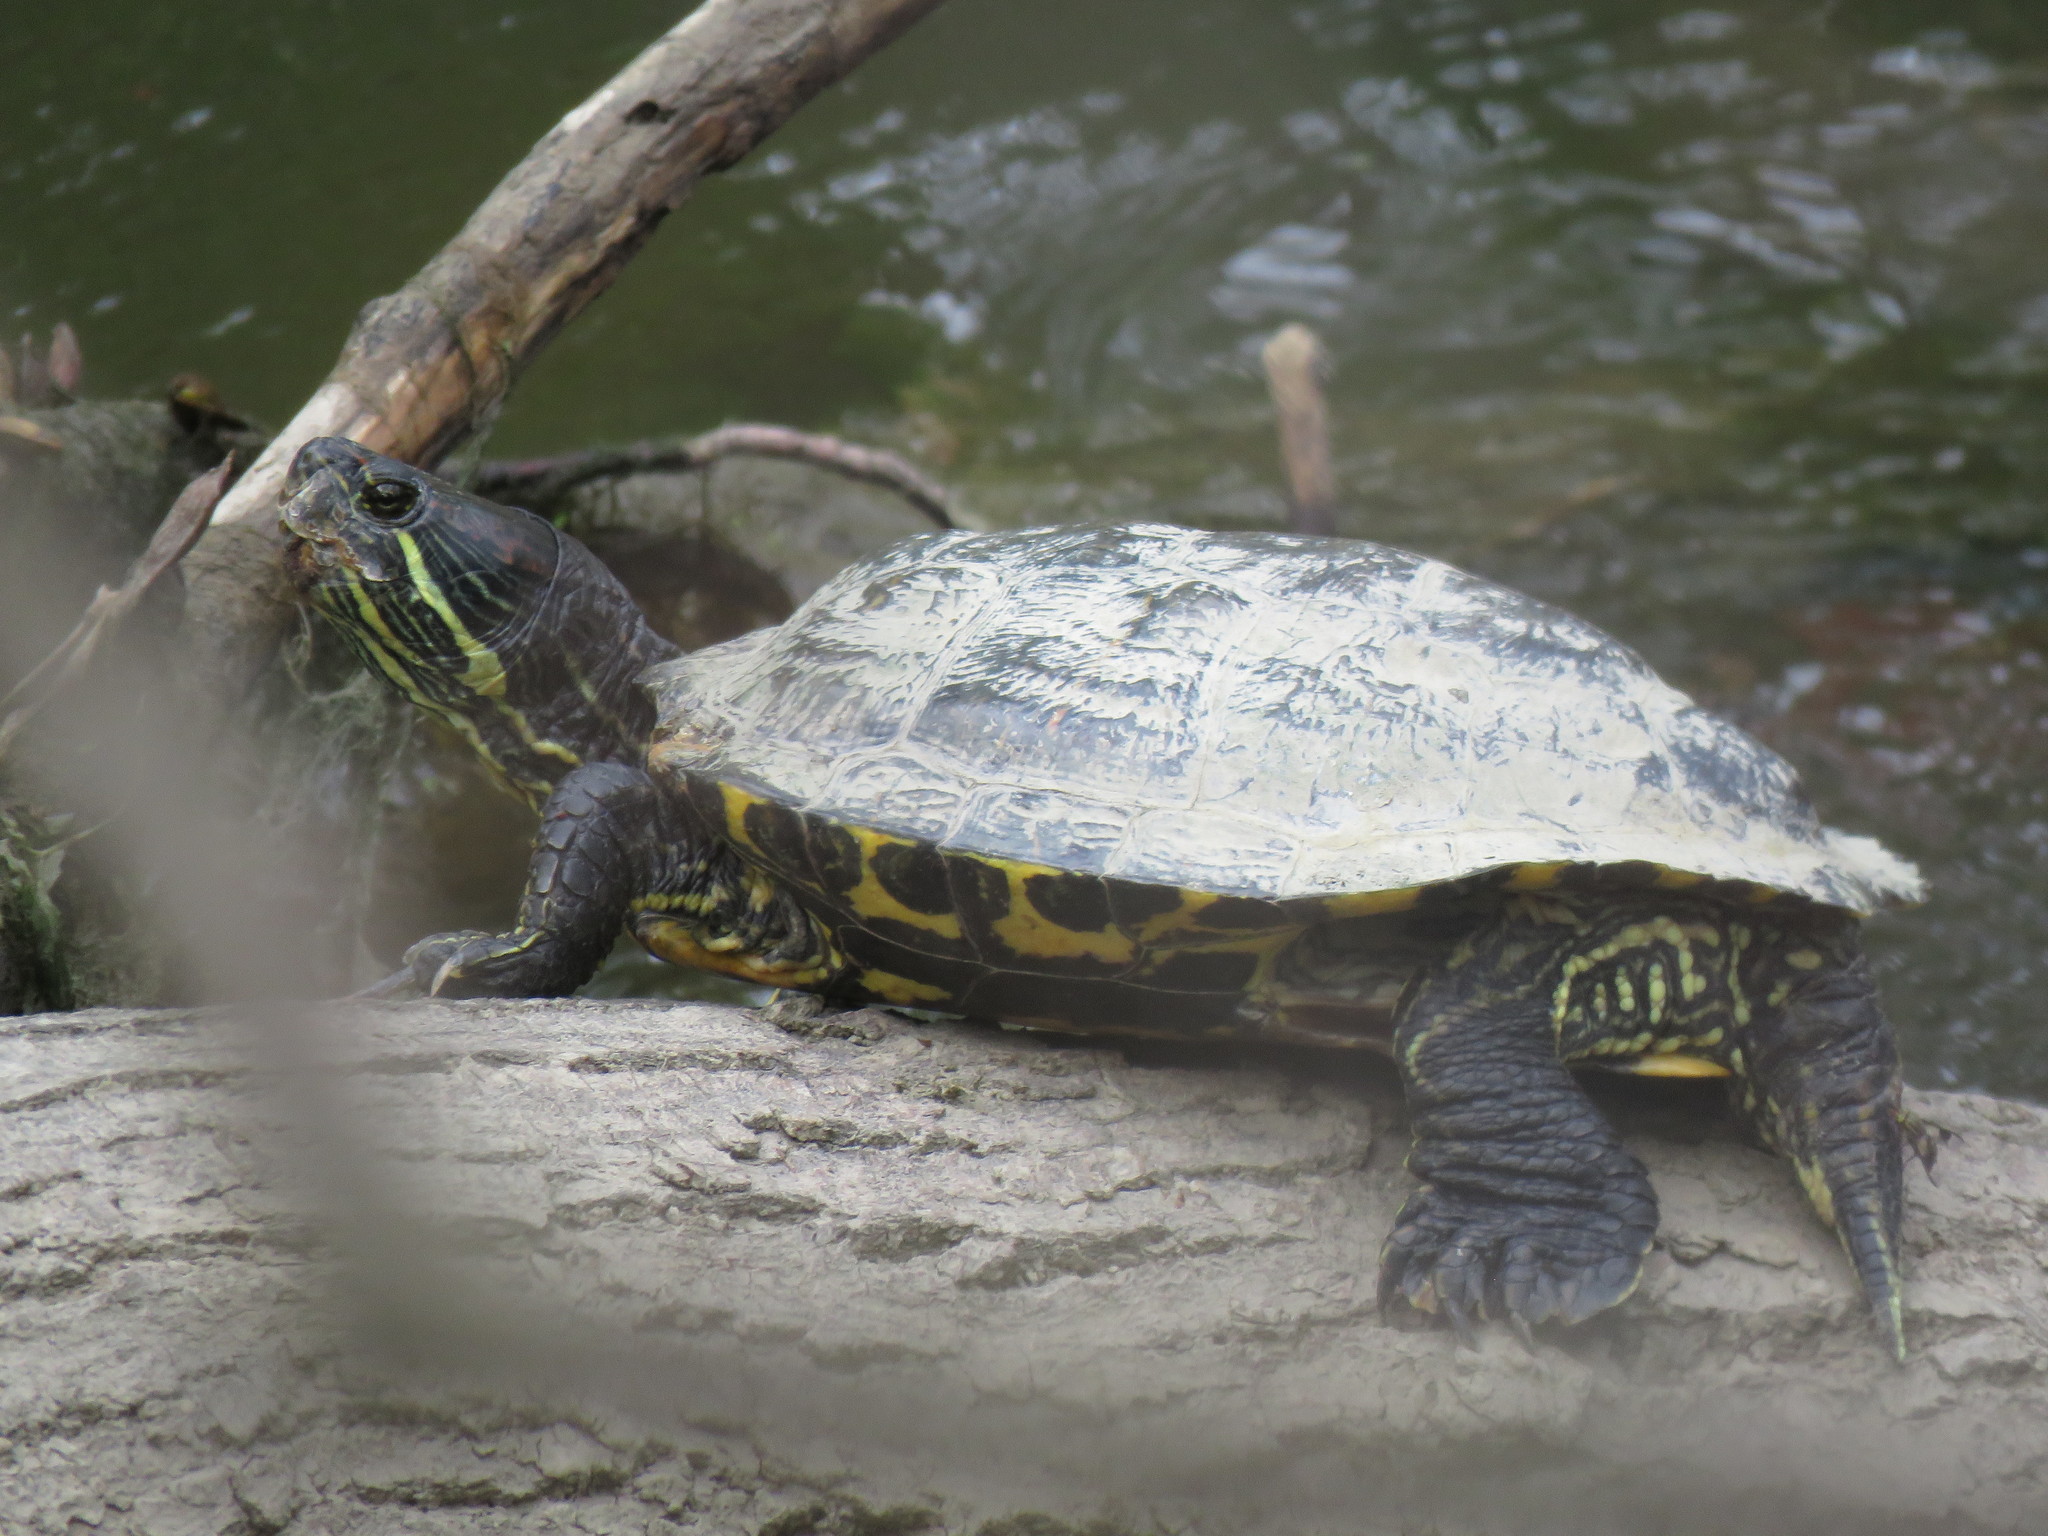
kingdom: Animalia
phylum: Chordata
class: Testudines
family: Emydidae
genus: Trachemys
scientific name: Trachemys scripta
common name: Slider
